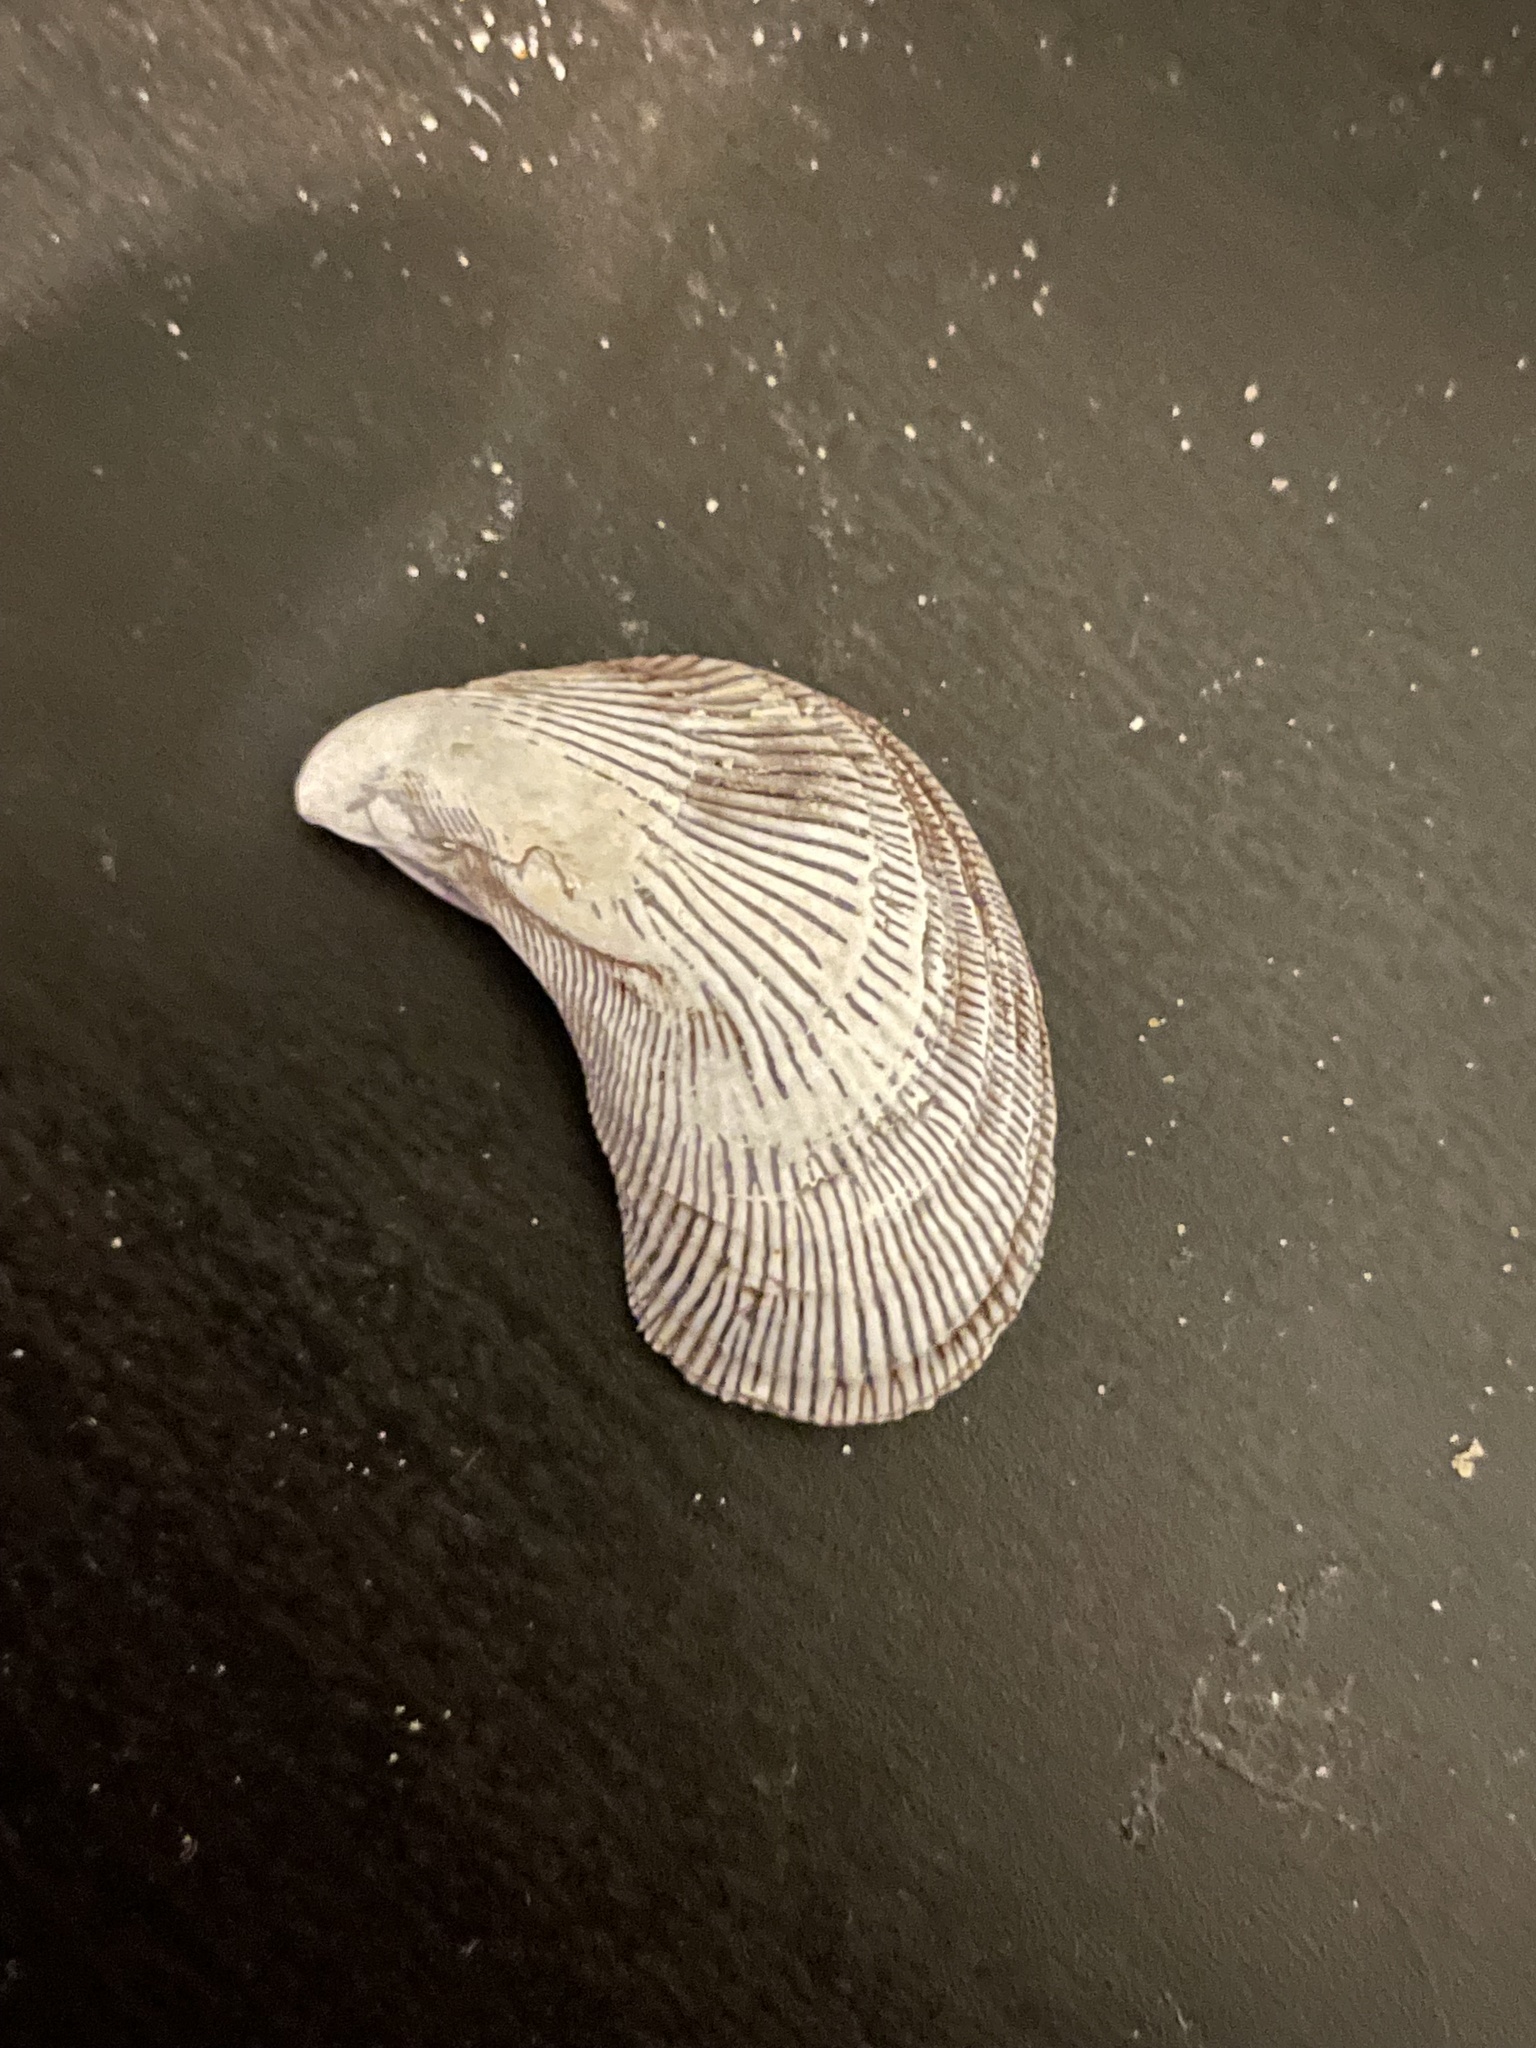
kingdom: Animalia
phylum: Mollusca
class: Bivalvia
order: Mytilida
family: Mytilidae
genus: Ischadium
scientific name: Ischadium recurvum
